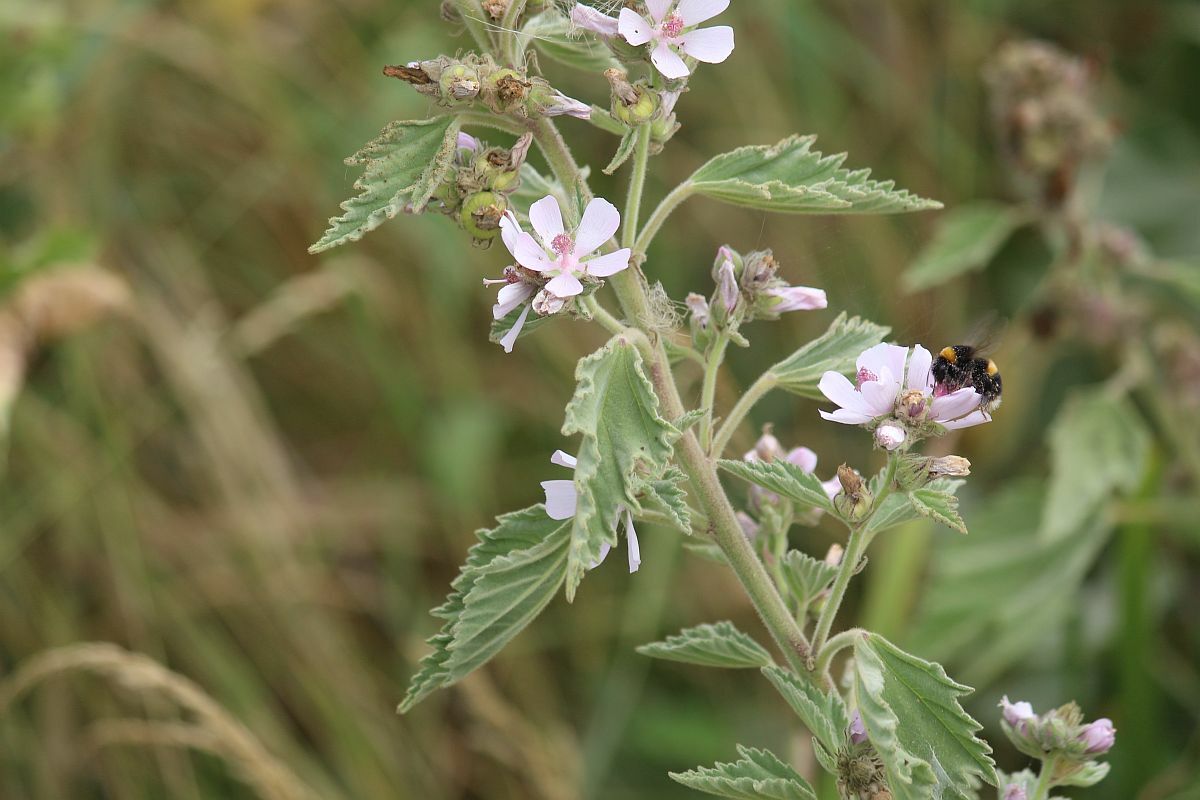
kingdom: Plantae
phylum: Tracheophyta
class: Magnoliopsida
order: Malvales
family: Malvaceae
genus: Althaea
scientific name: Althaea officinalis
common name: Marsh-mallow
